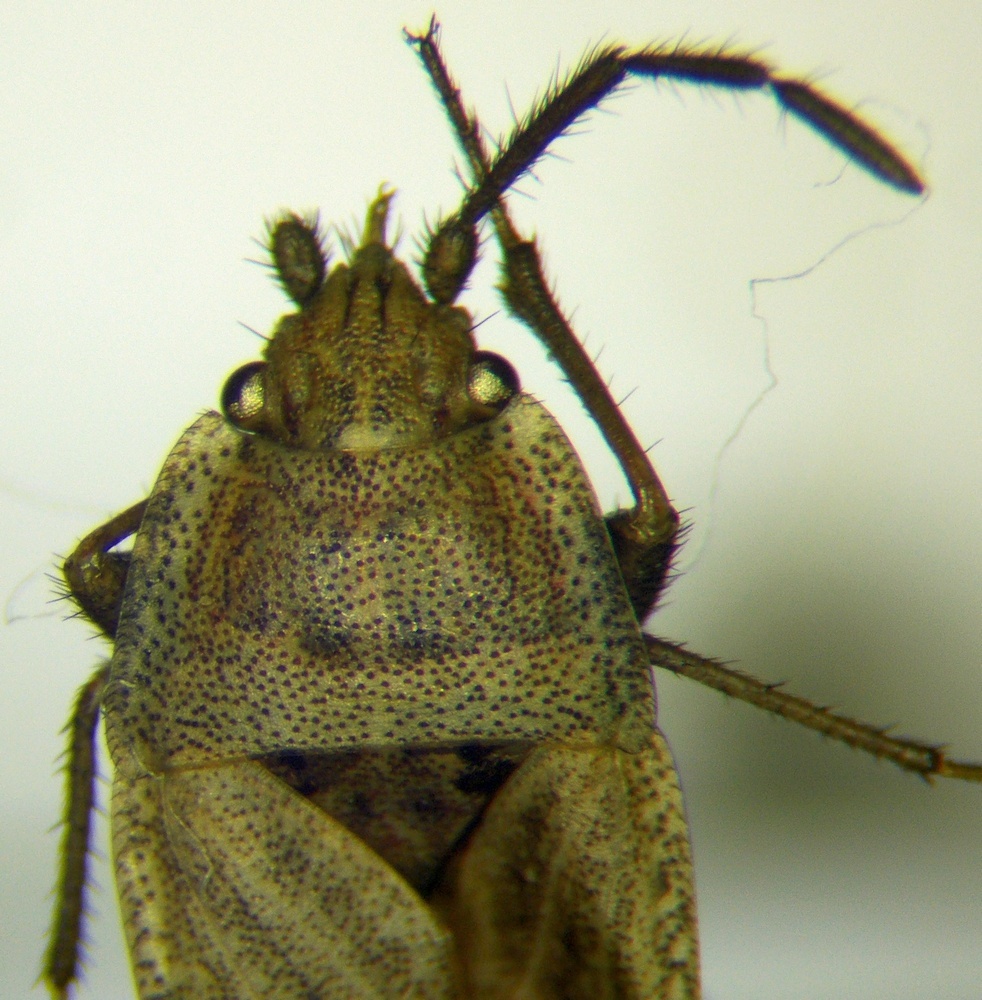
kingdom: Animalia
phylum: Arthropoda
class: Insecta
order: Hemiptera
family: Rhyparochromidae
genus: Emblethis
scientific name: Emblethis dilaticollis
